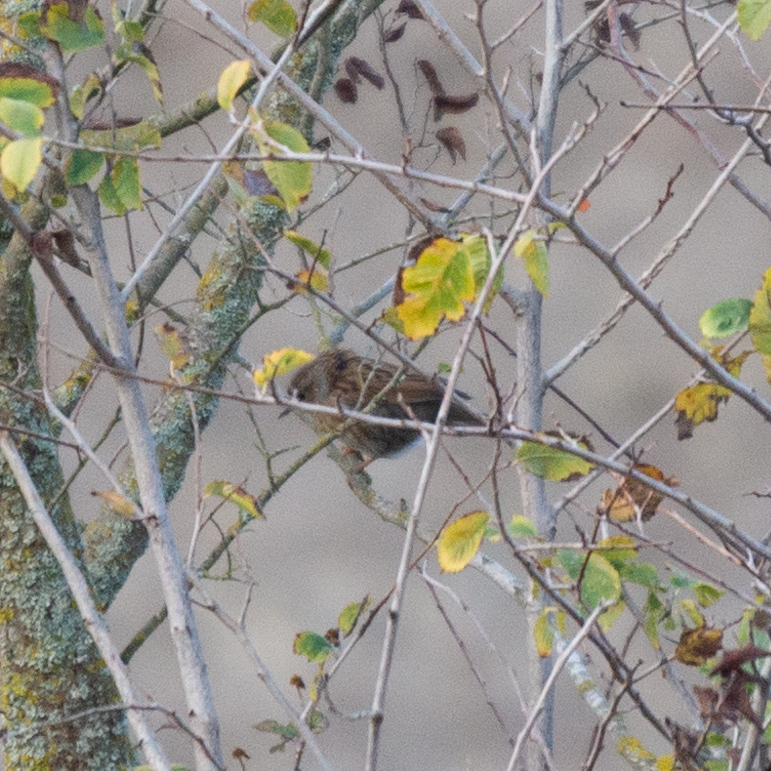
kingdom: Animalia
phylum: Chordata
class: Aves
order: Passeriformes
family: Prunellidae
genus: Prunella
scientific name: Prunella modularis
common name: Dunnock
